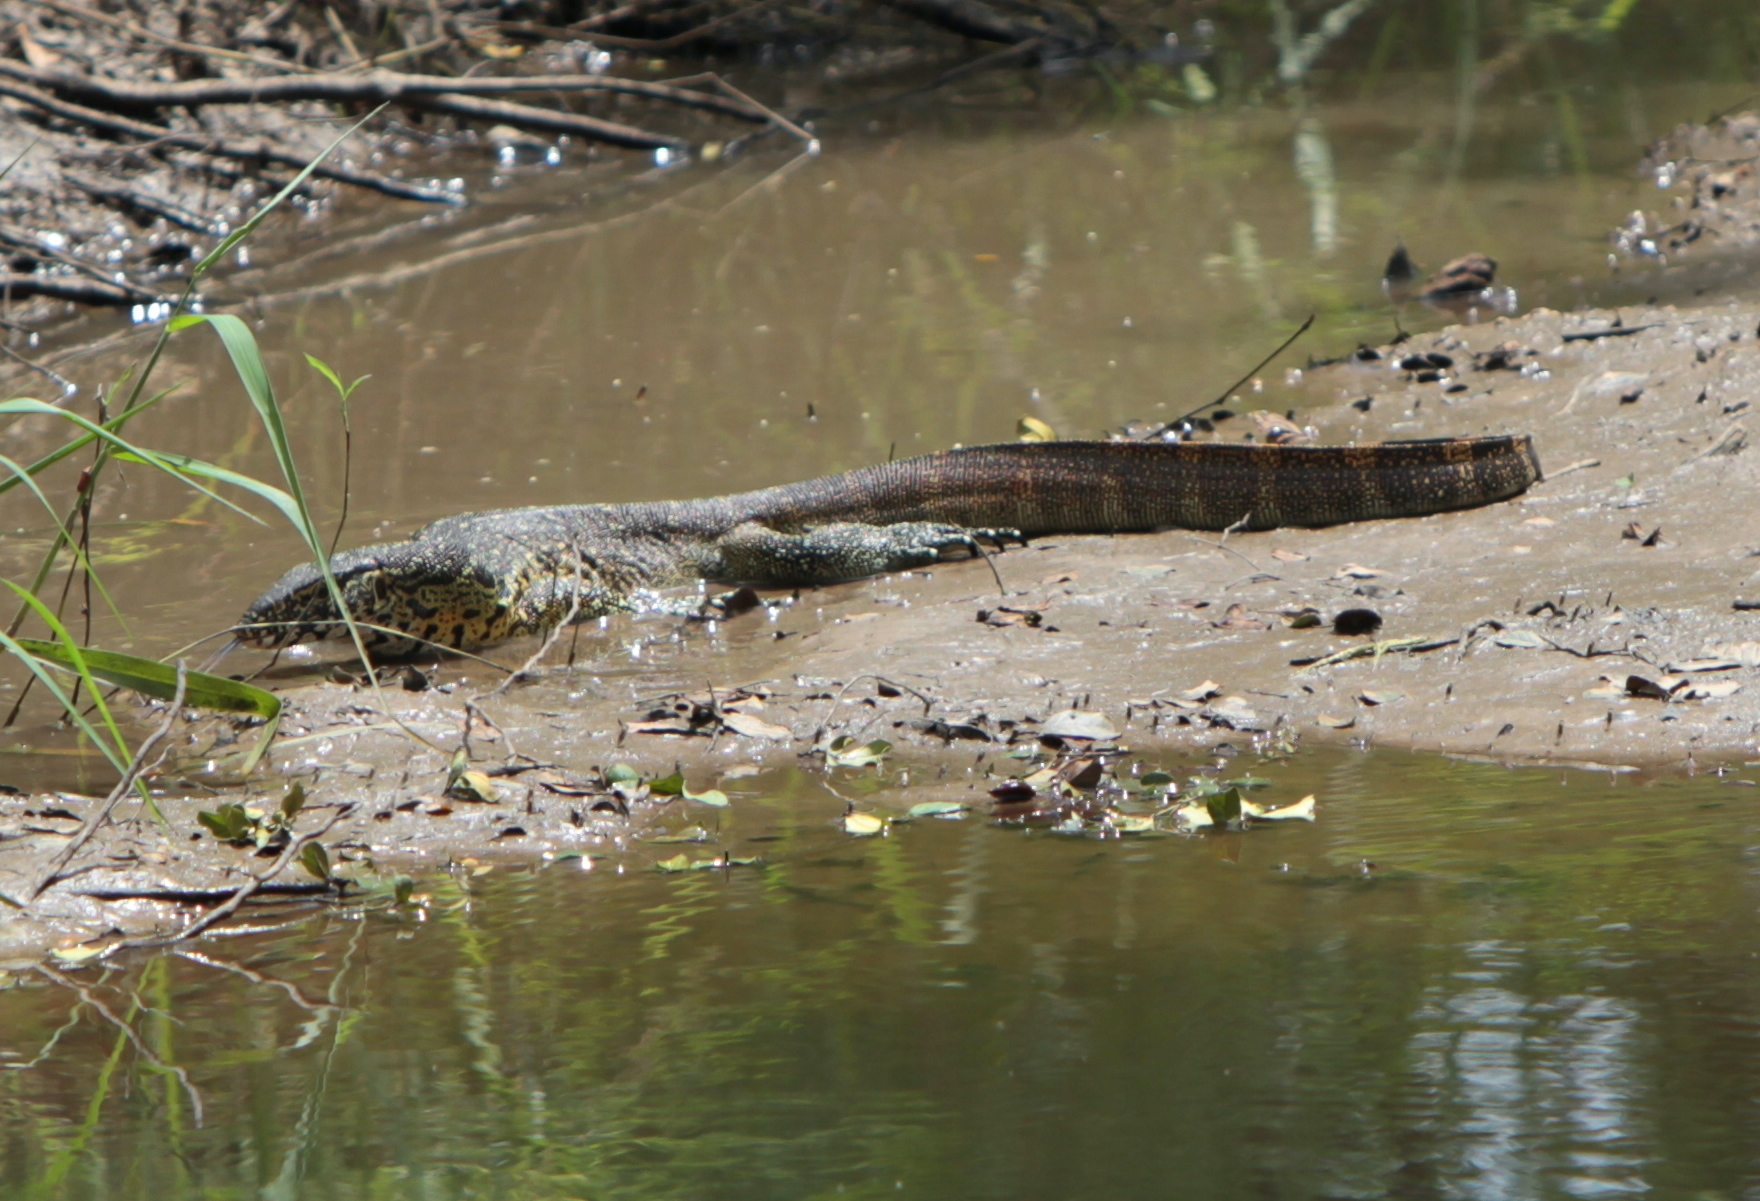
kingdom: Animalia
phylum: Chordata
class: Squamata
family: Varanidae
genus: Varanus
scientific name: Varanus niloticus
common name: Nile monitor
